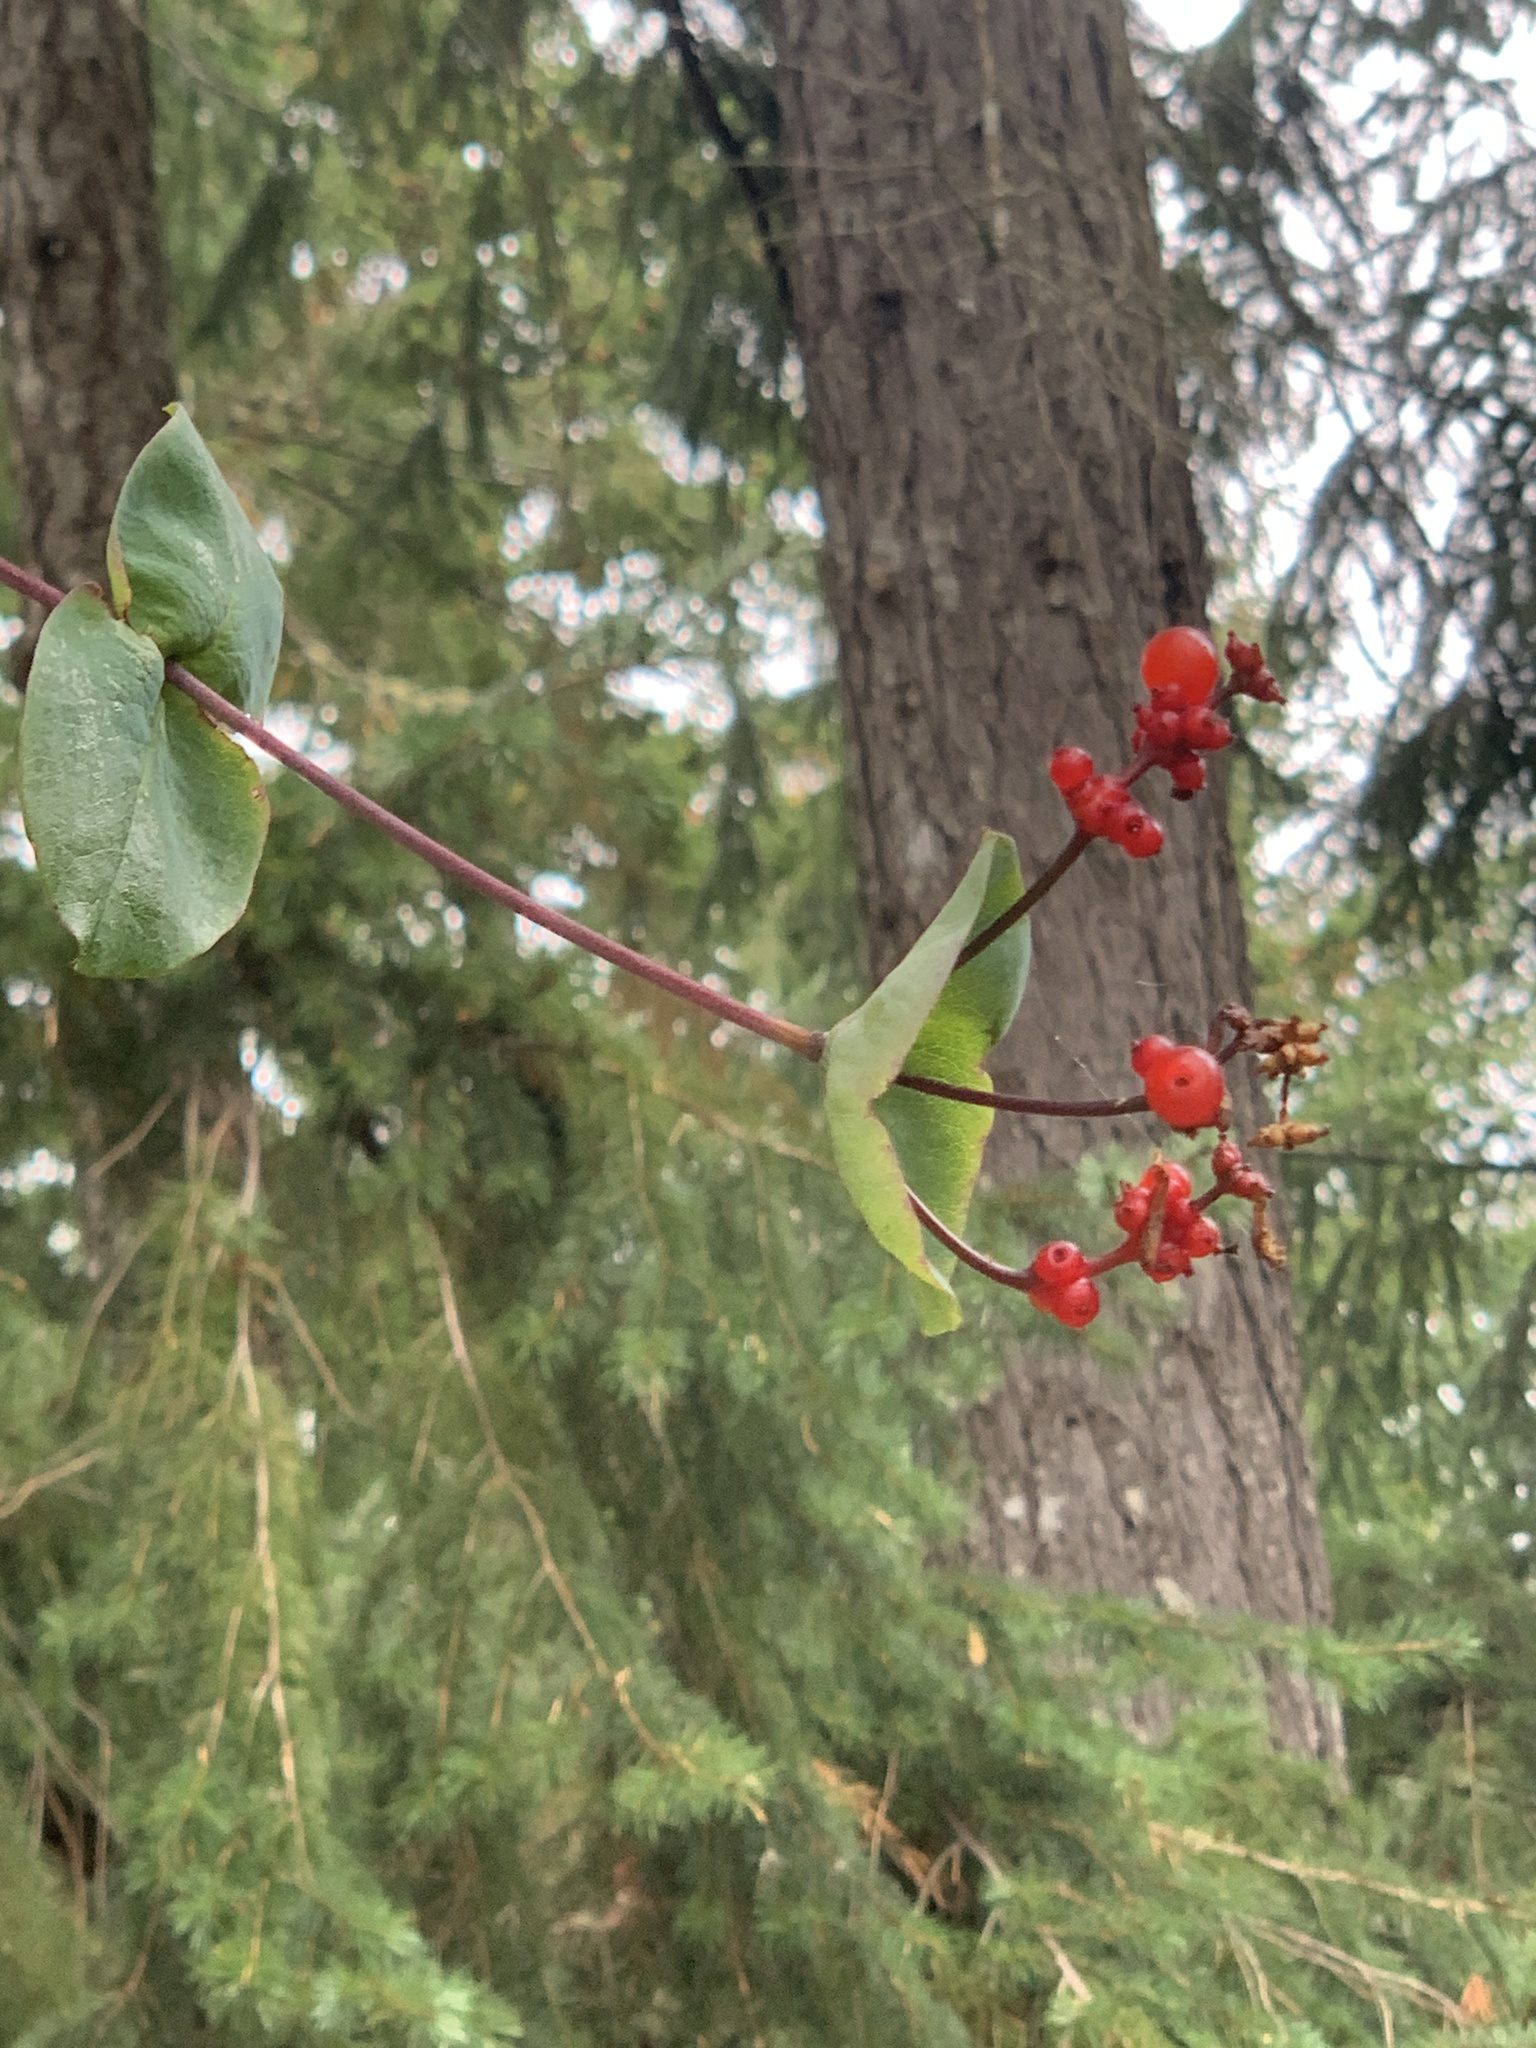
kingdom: Plantae
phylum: Tracheophyta
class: Magnoliopsida
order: Dipsacales
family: Caprifoliaceae
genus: Lonicera
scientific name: Lonicera hispidula
